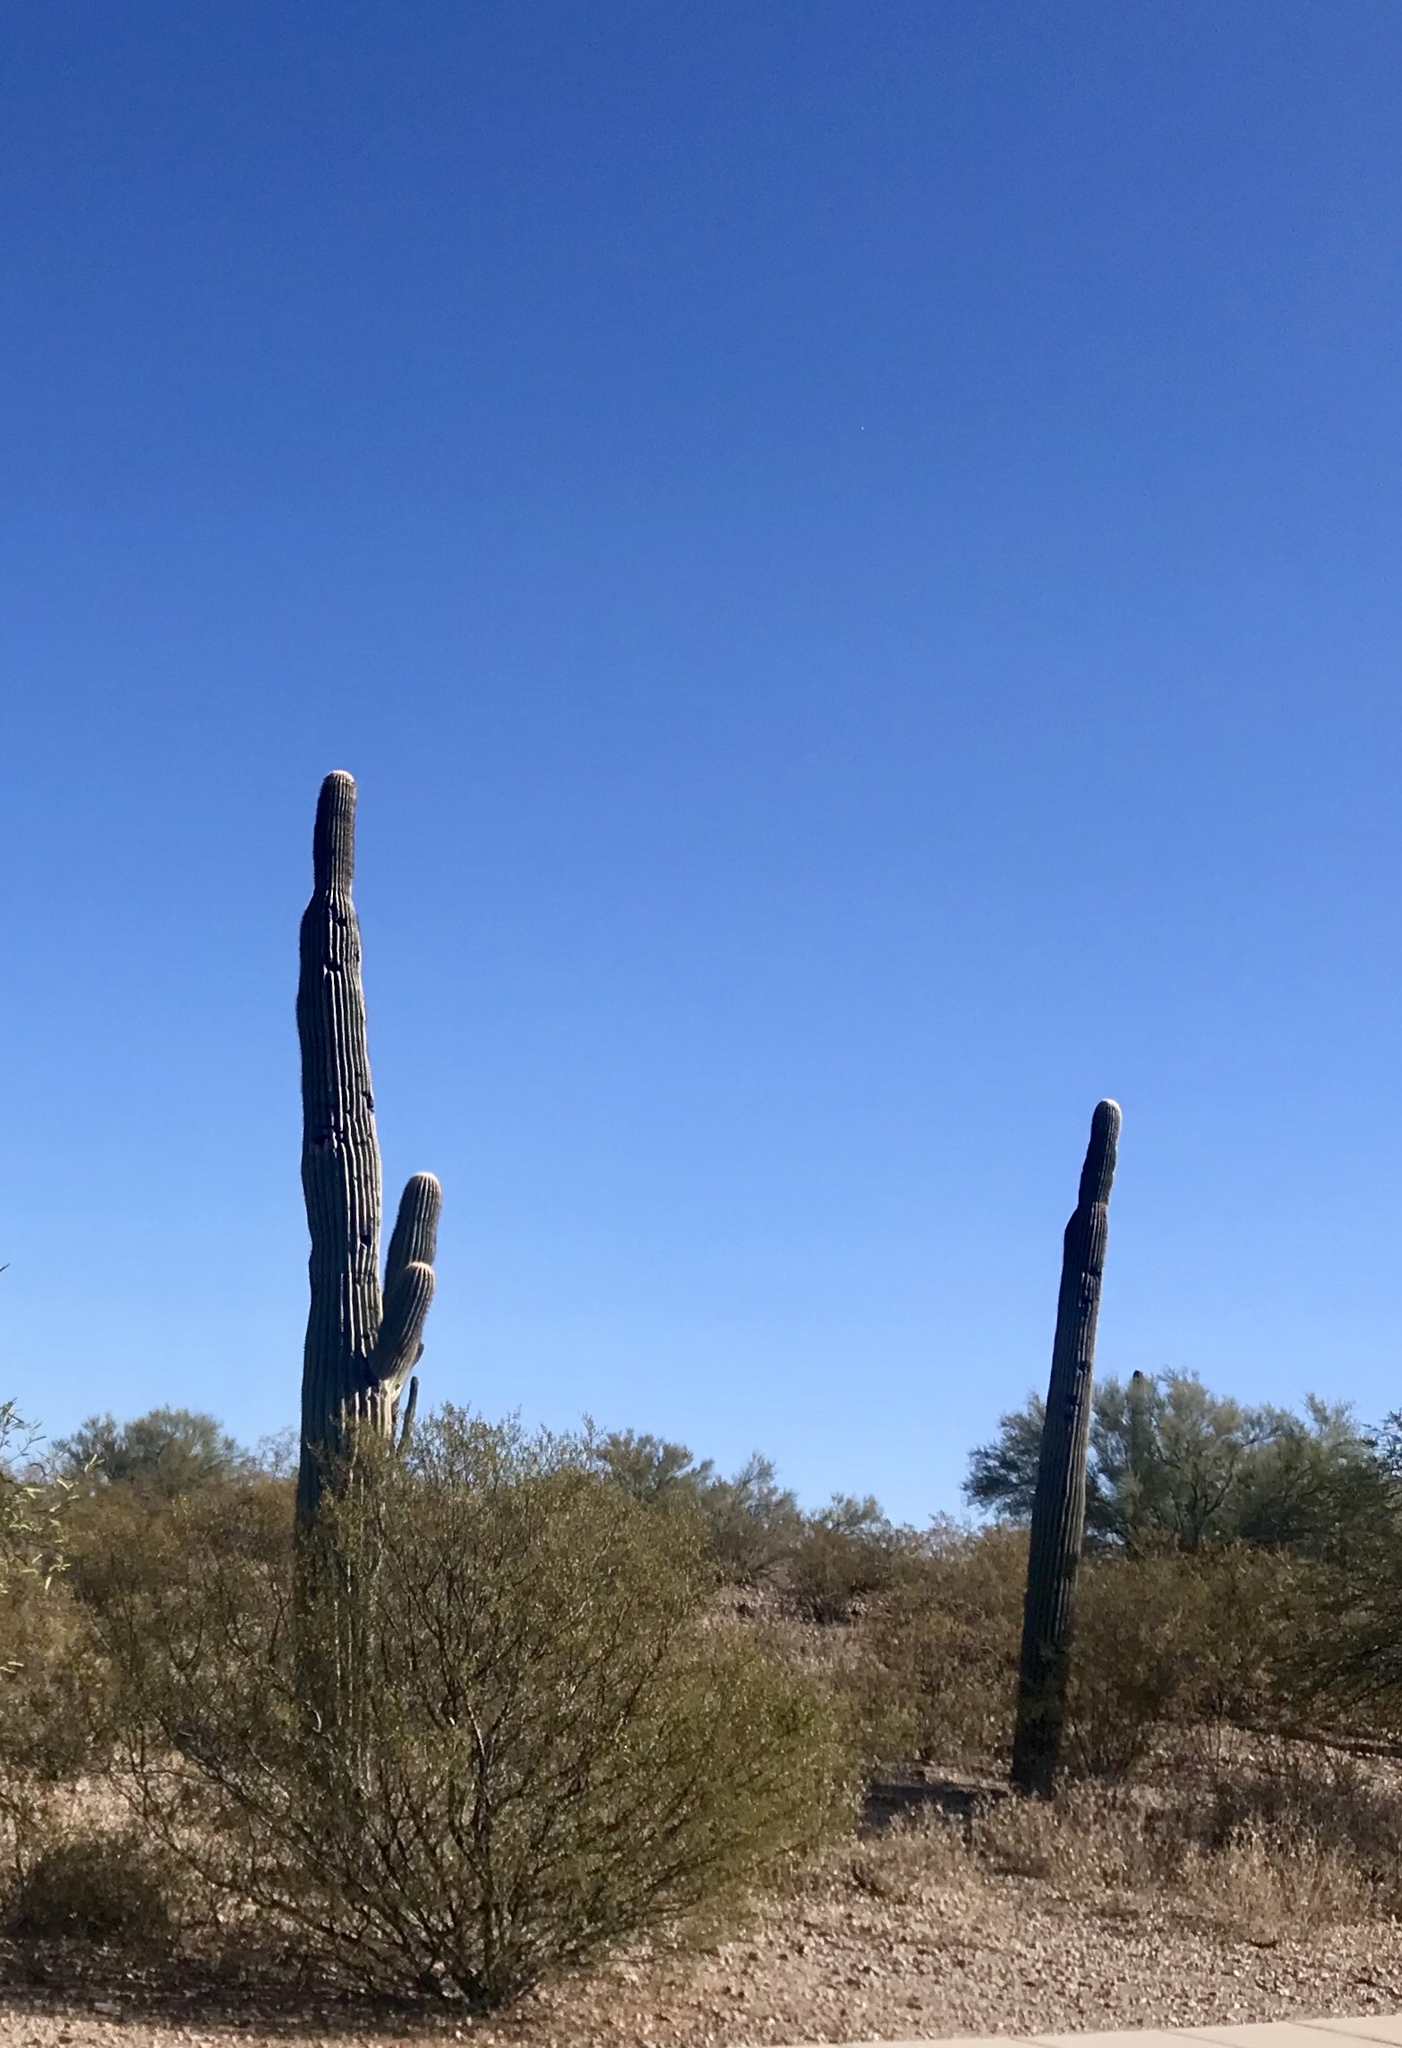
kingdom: Plantae
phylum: Tracheophyta
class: Magnoliopsida
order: Caryophyllales
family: Cactaceae
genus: Carnegiea
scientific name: Carnegiea gigantea
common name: Saguaro
